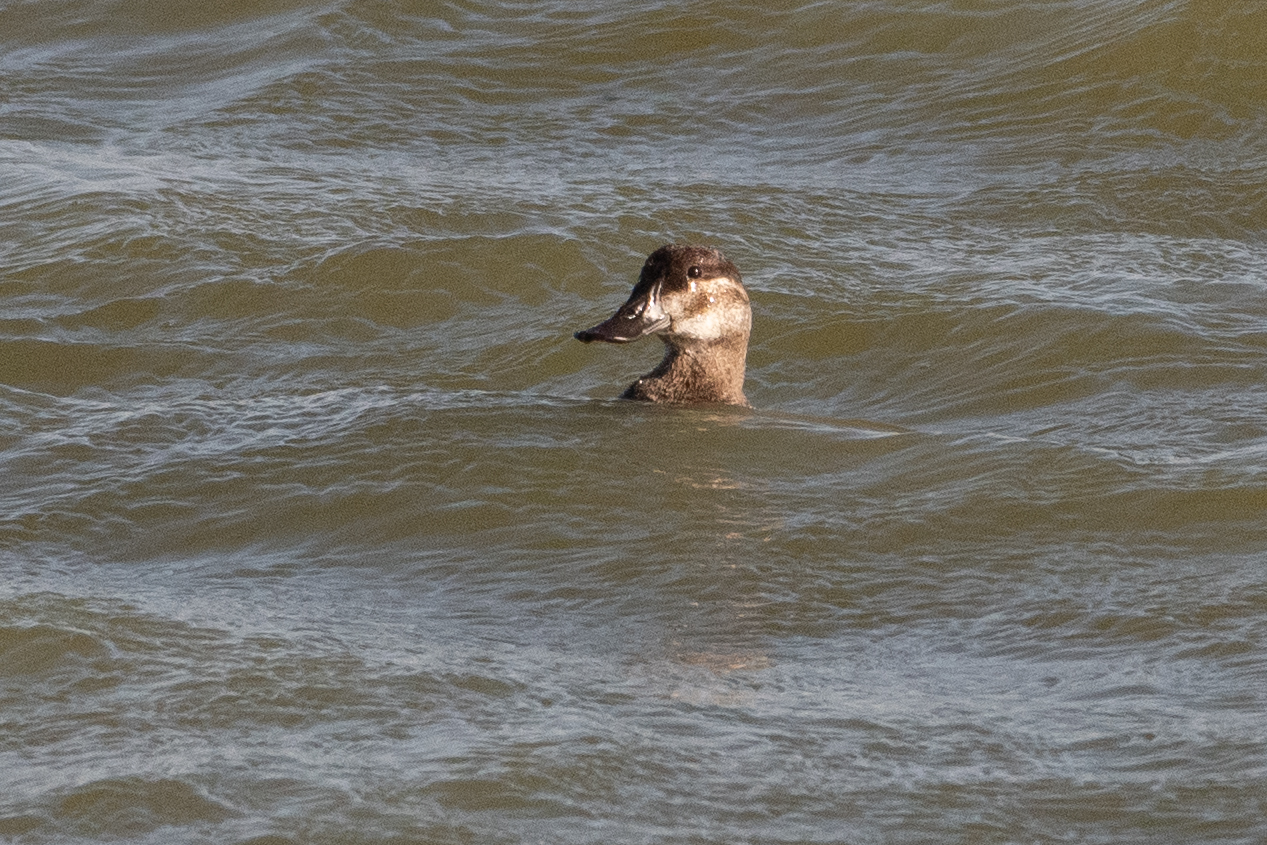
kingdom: Animalia
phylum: Chordata
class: Aves
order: Anseriformes
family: Anatidae
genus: Oxyura
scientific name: Oxyura jamaicensis
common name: Ruddy duck
